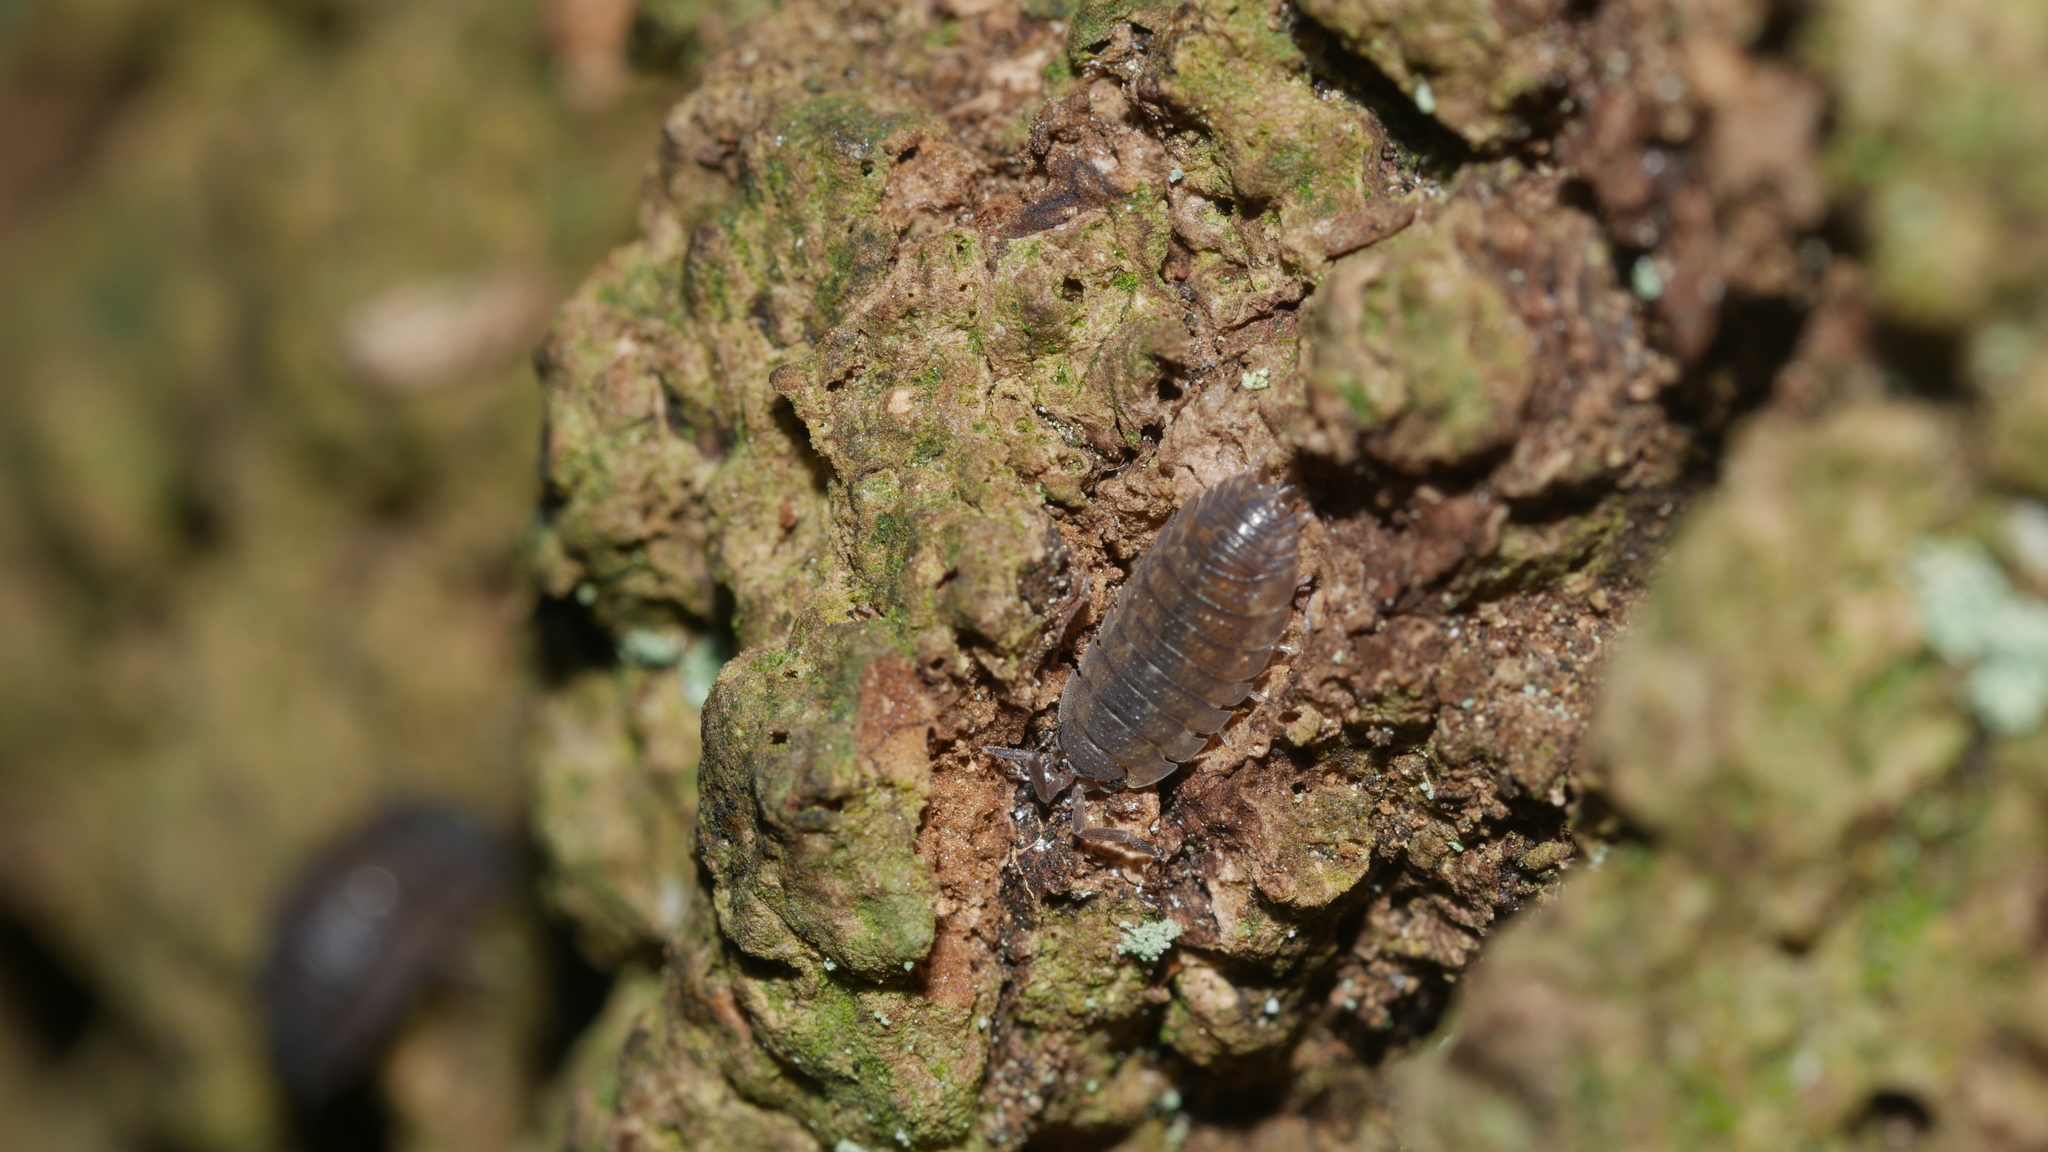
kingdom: Animalia
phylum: Arthropoda
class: Malacostraca
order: Isopoda
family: Porcellionidae
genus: Porcellio
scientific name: Porcellio scaber
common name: Common rough woodlouse
